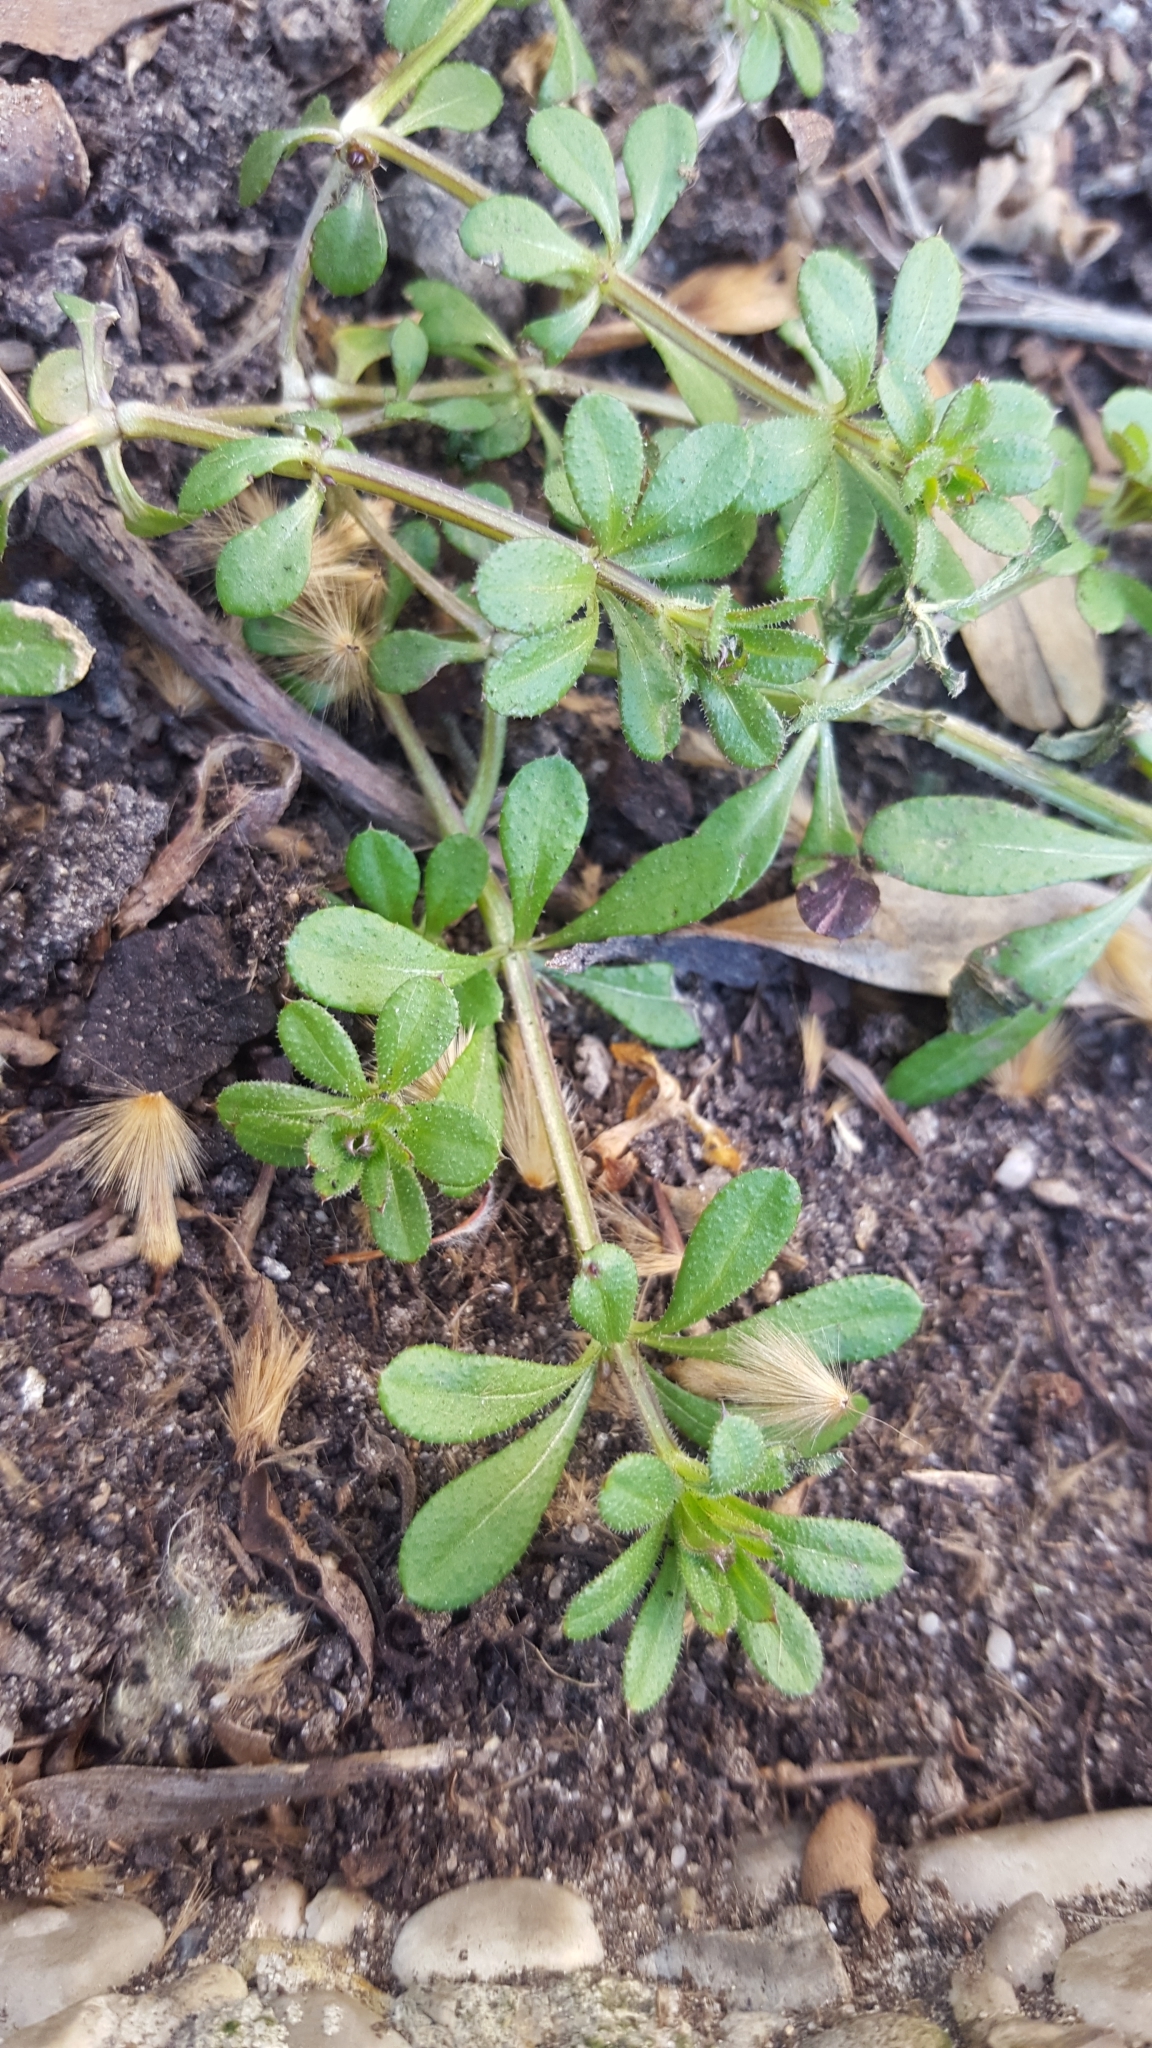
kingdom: Plantae
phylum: Tracheophyta
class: Magnoliopsida
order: Gentianales
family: Rubiaceae
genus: Galium
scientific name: Galium aparine
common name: Cleavers
